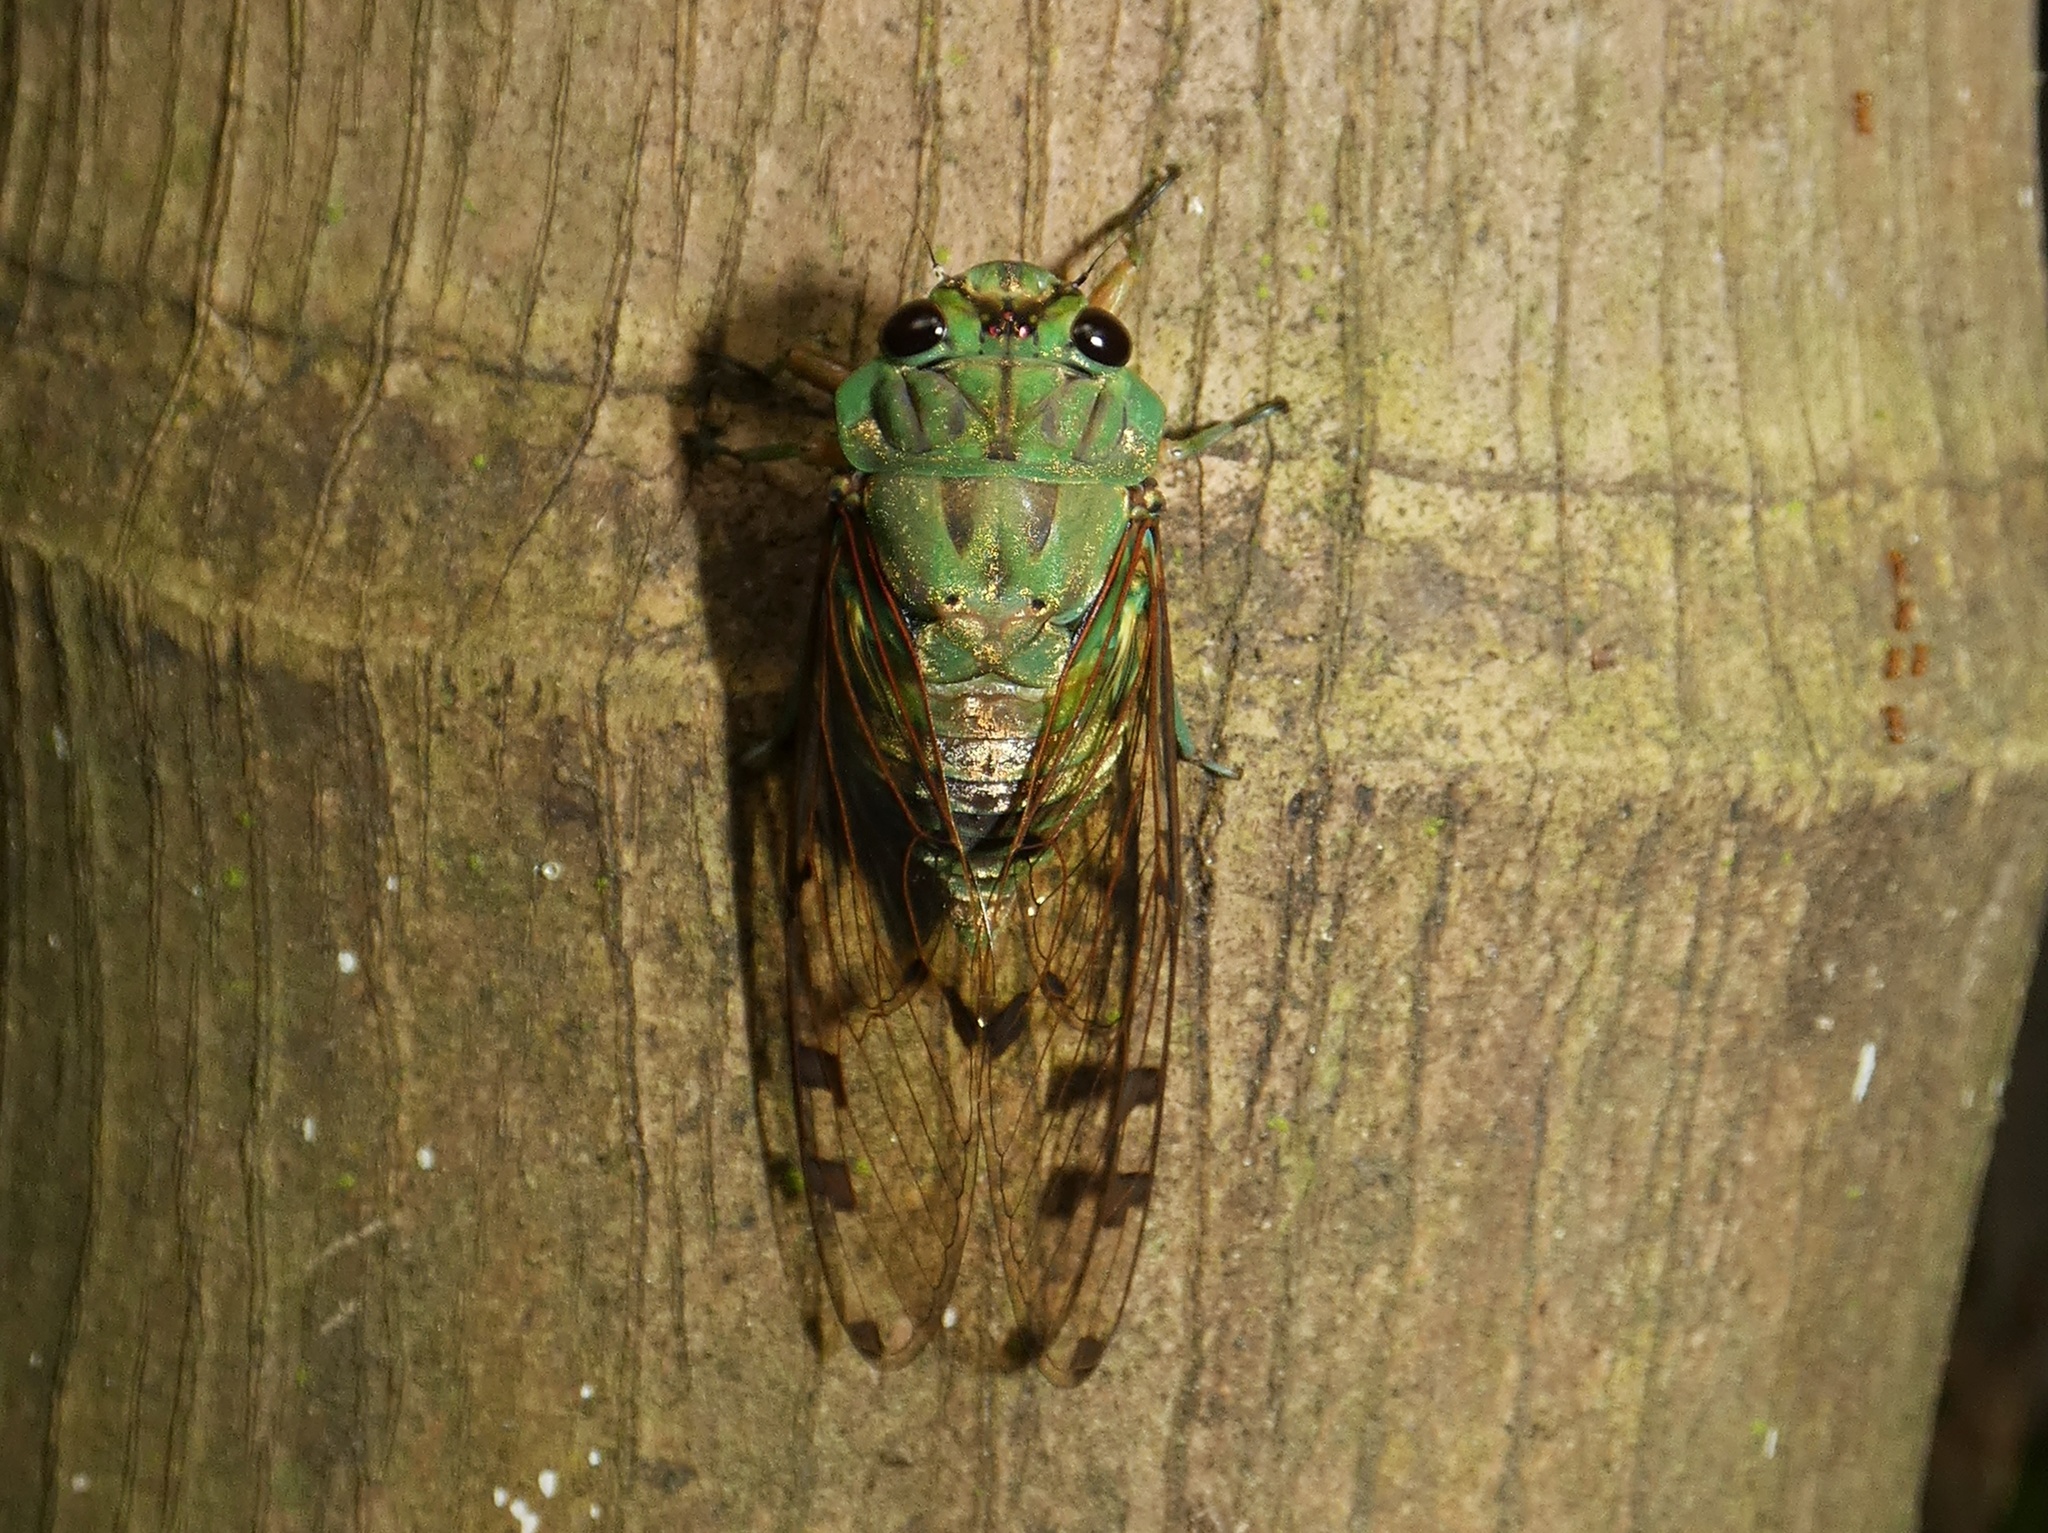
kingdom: Animalia
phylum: Arthropoda
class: Insecta
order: Hemiptera
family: Cicadidae
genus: Zammara
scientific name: Zammara smaragdula
